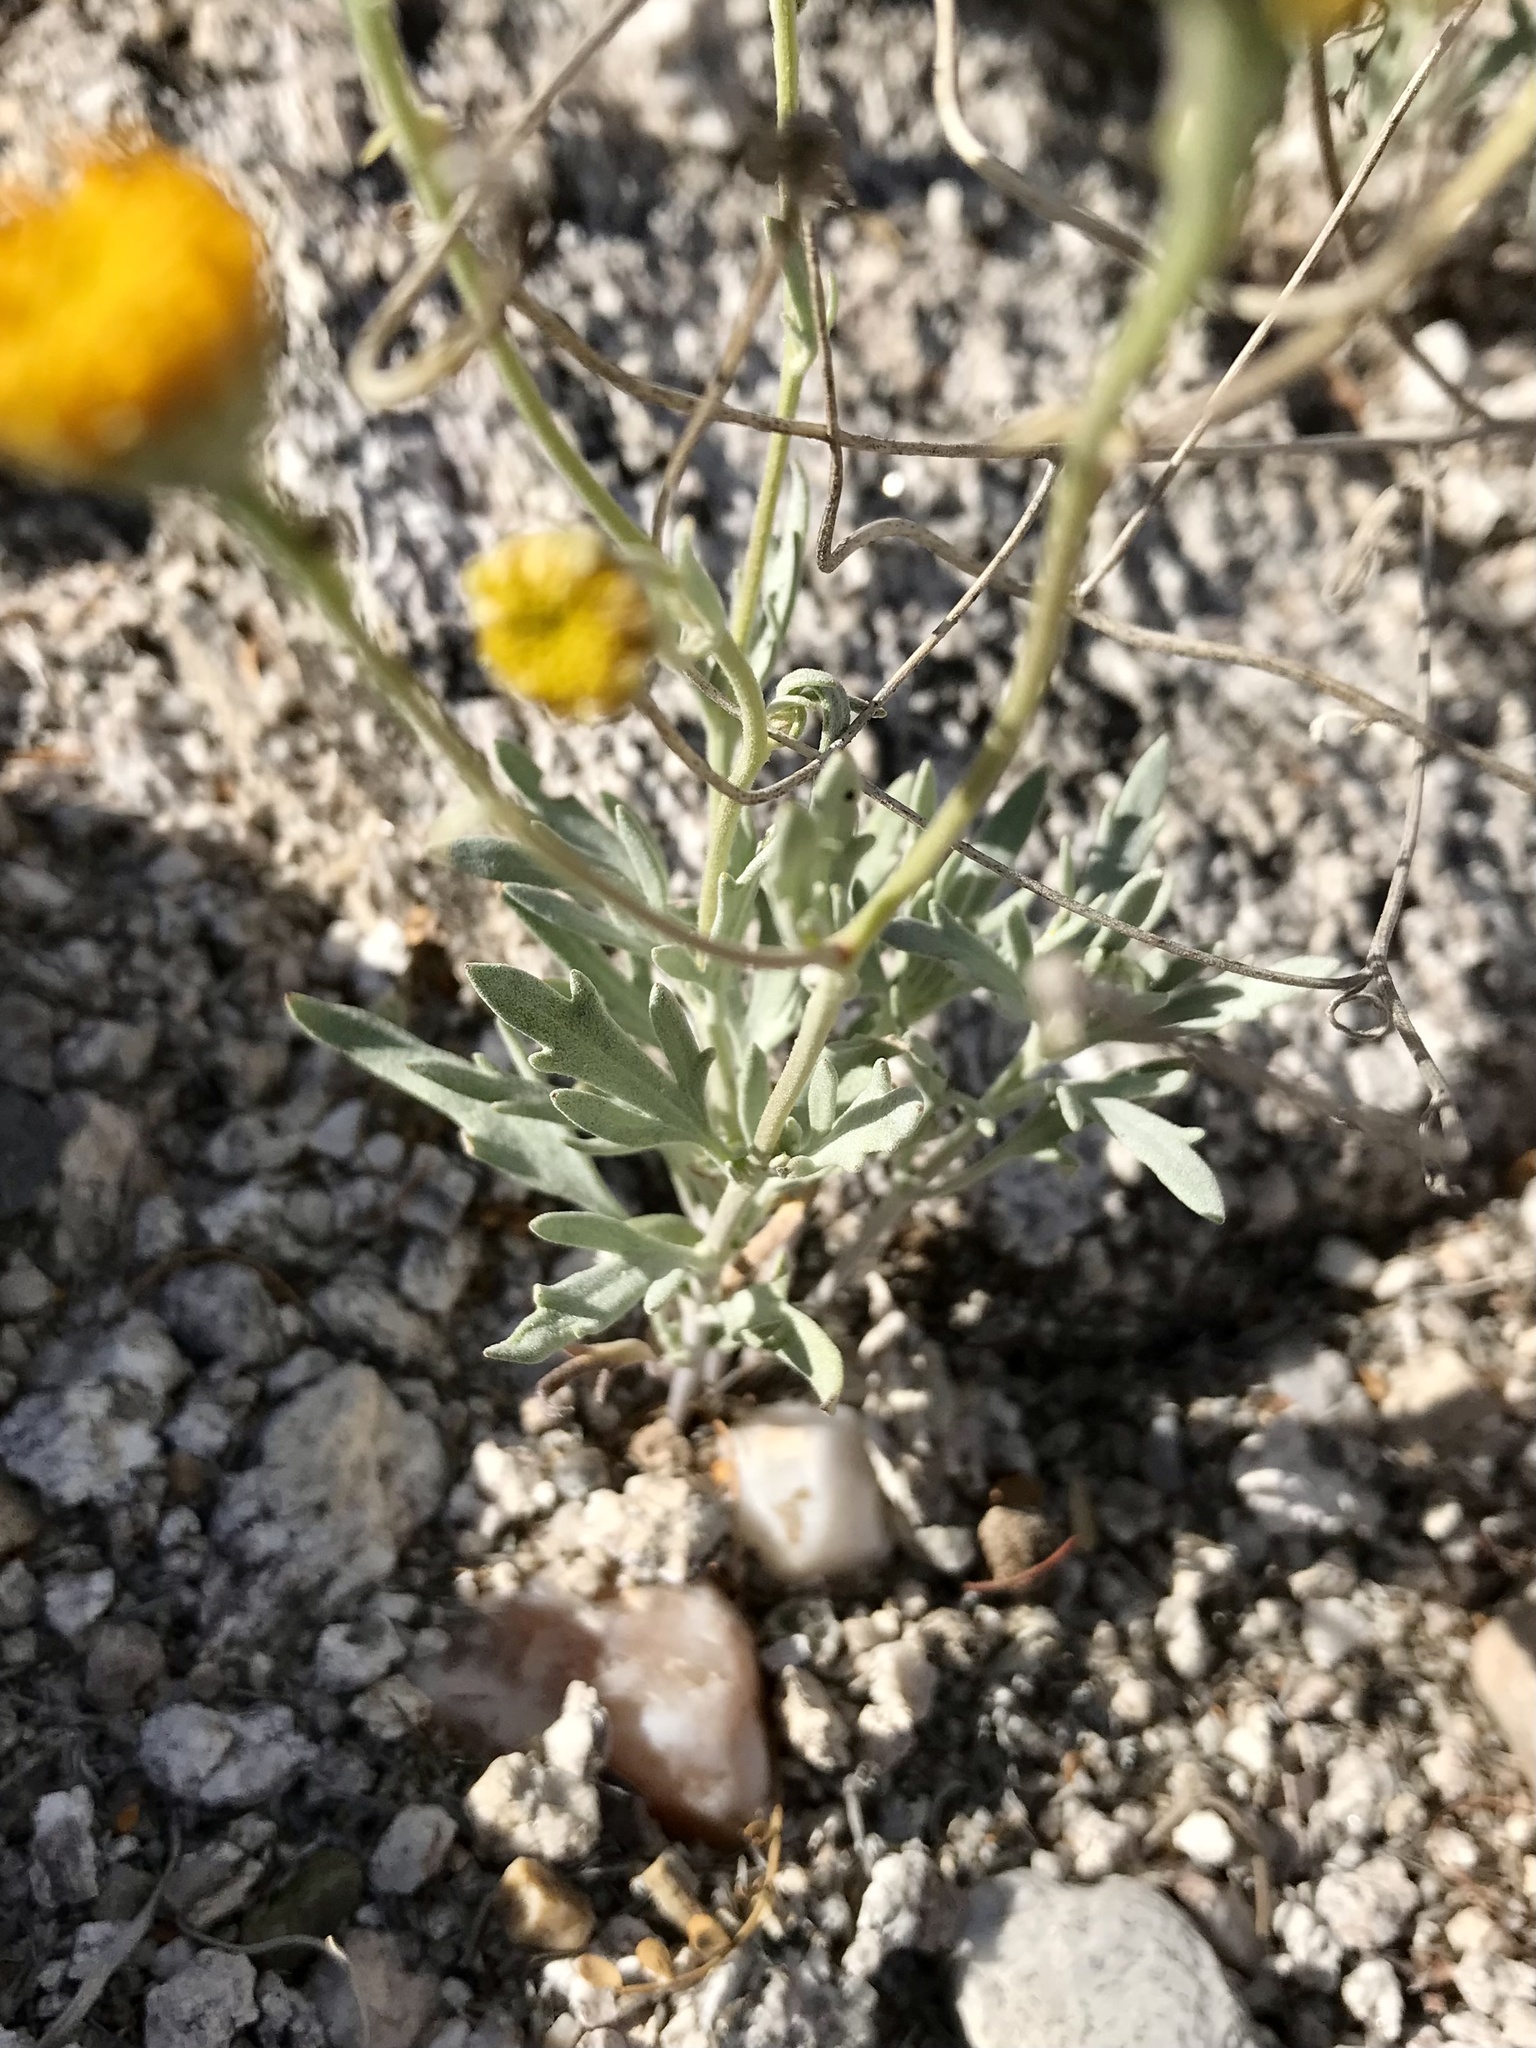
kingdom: Plantae
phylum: Tracheophyta
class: Magnoliopsida
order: Asterales
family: Asteraceae
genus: Picradeniopsis
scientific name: Picradeniopsis absinthifolia
